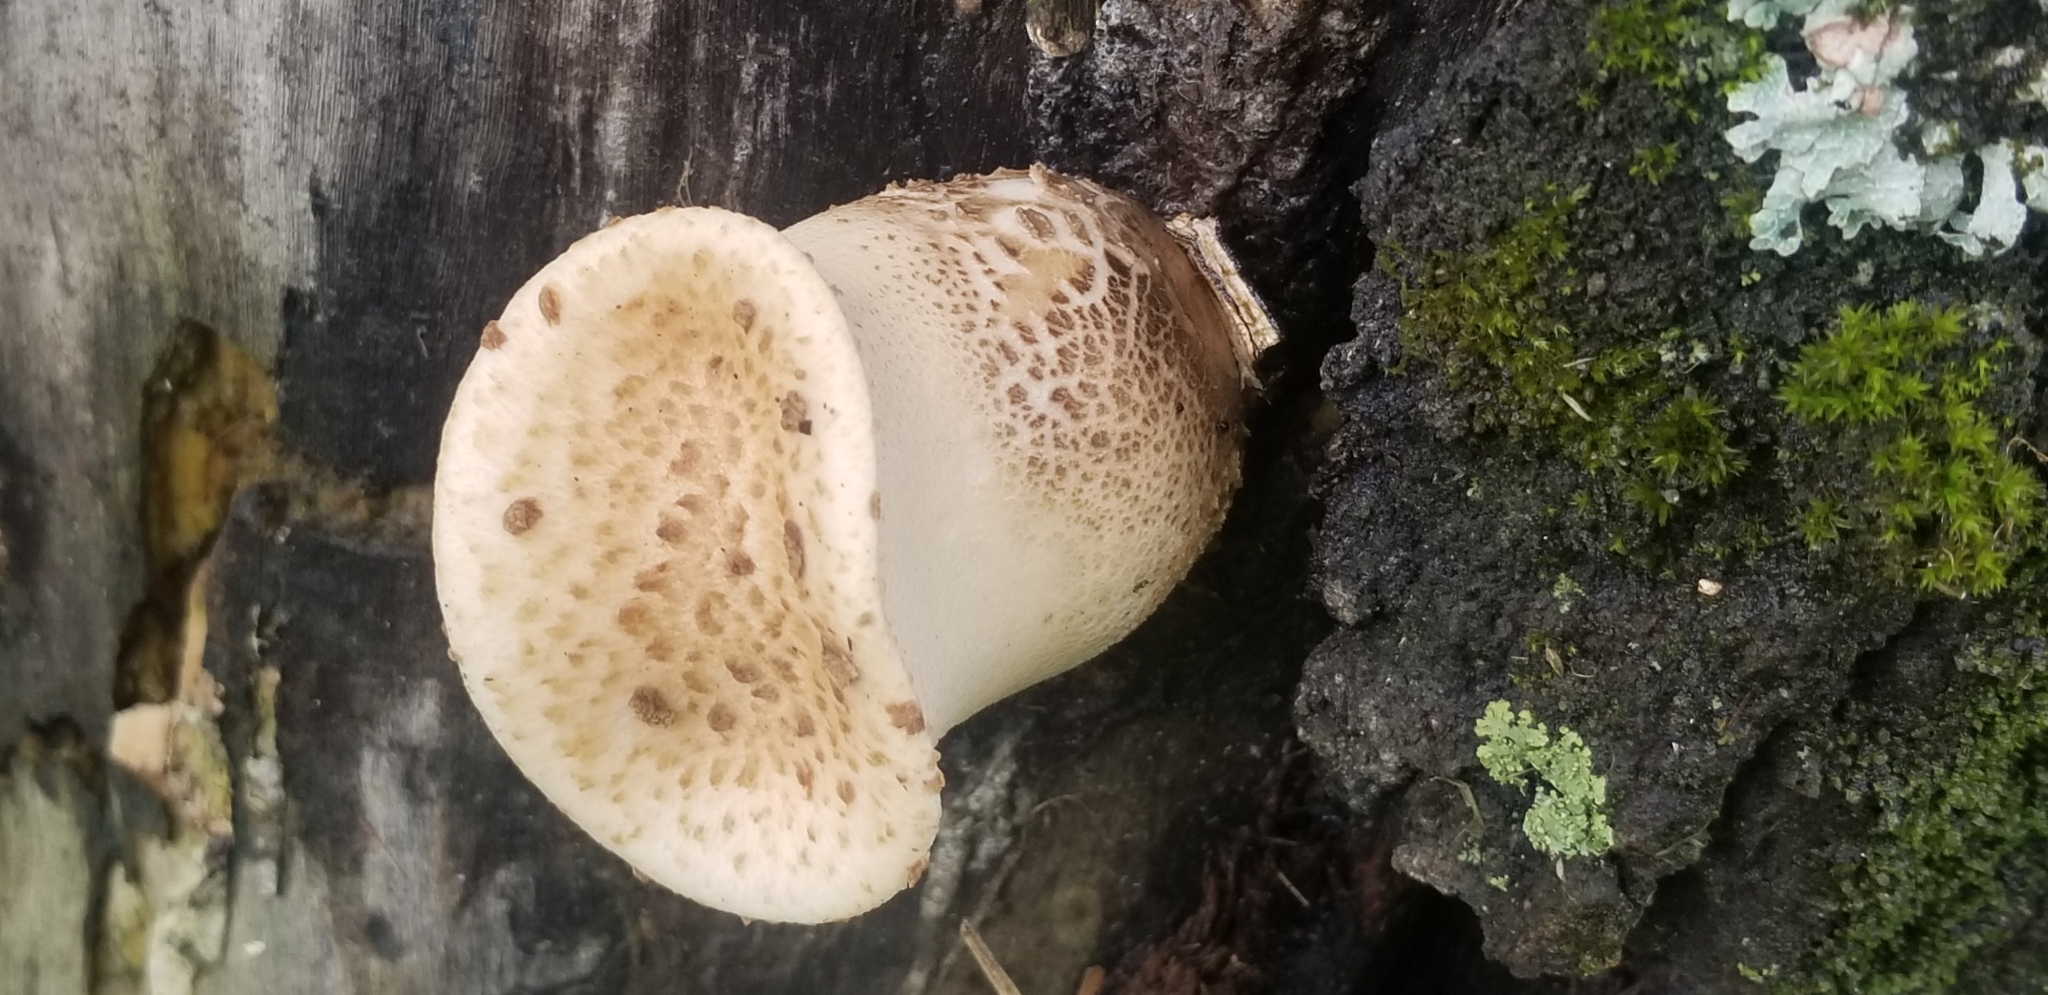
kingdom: Fungi
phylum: Basidiomycota
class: Agaricomycetes
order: Polyporales
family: Polyporaceae
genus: Cerioporus
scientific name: Cerioporus squamosus
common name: Dryad's saddle
